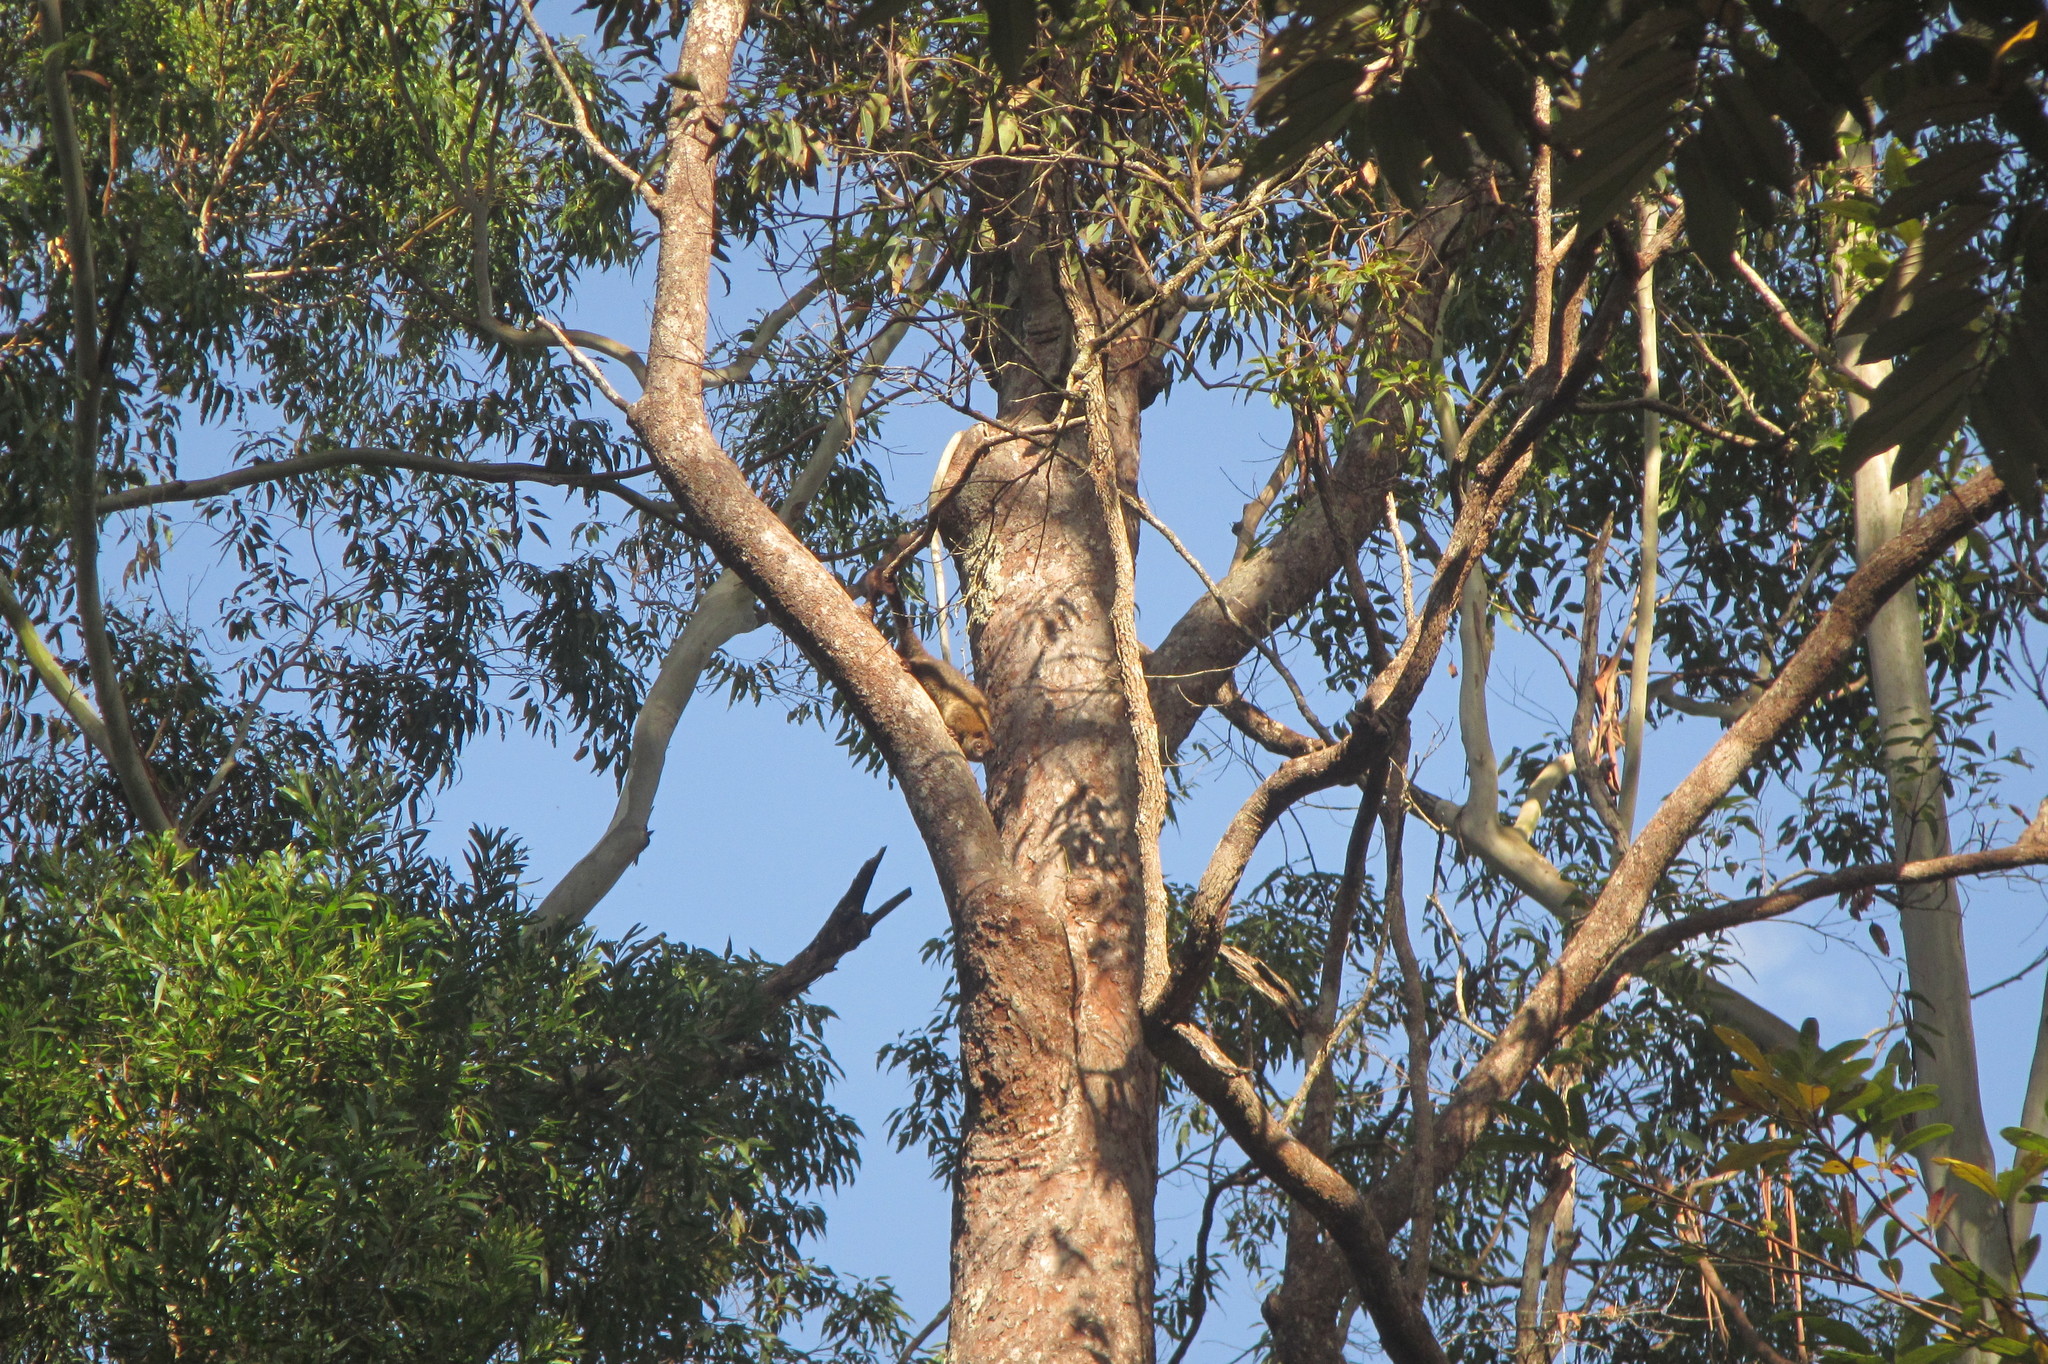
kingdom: Animalia
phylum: Chordata
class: Mammalia
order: Diprotodontia
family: Pseudocheiridae
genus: Hemibelideus
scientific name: Hemibelideus lemuroides
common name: Lemur-like ringtail
